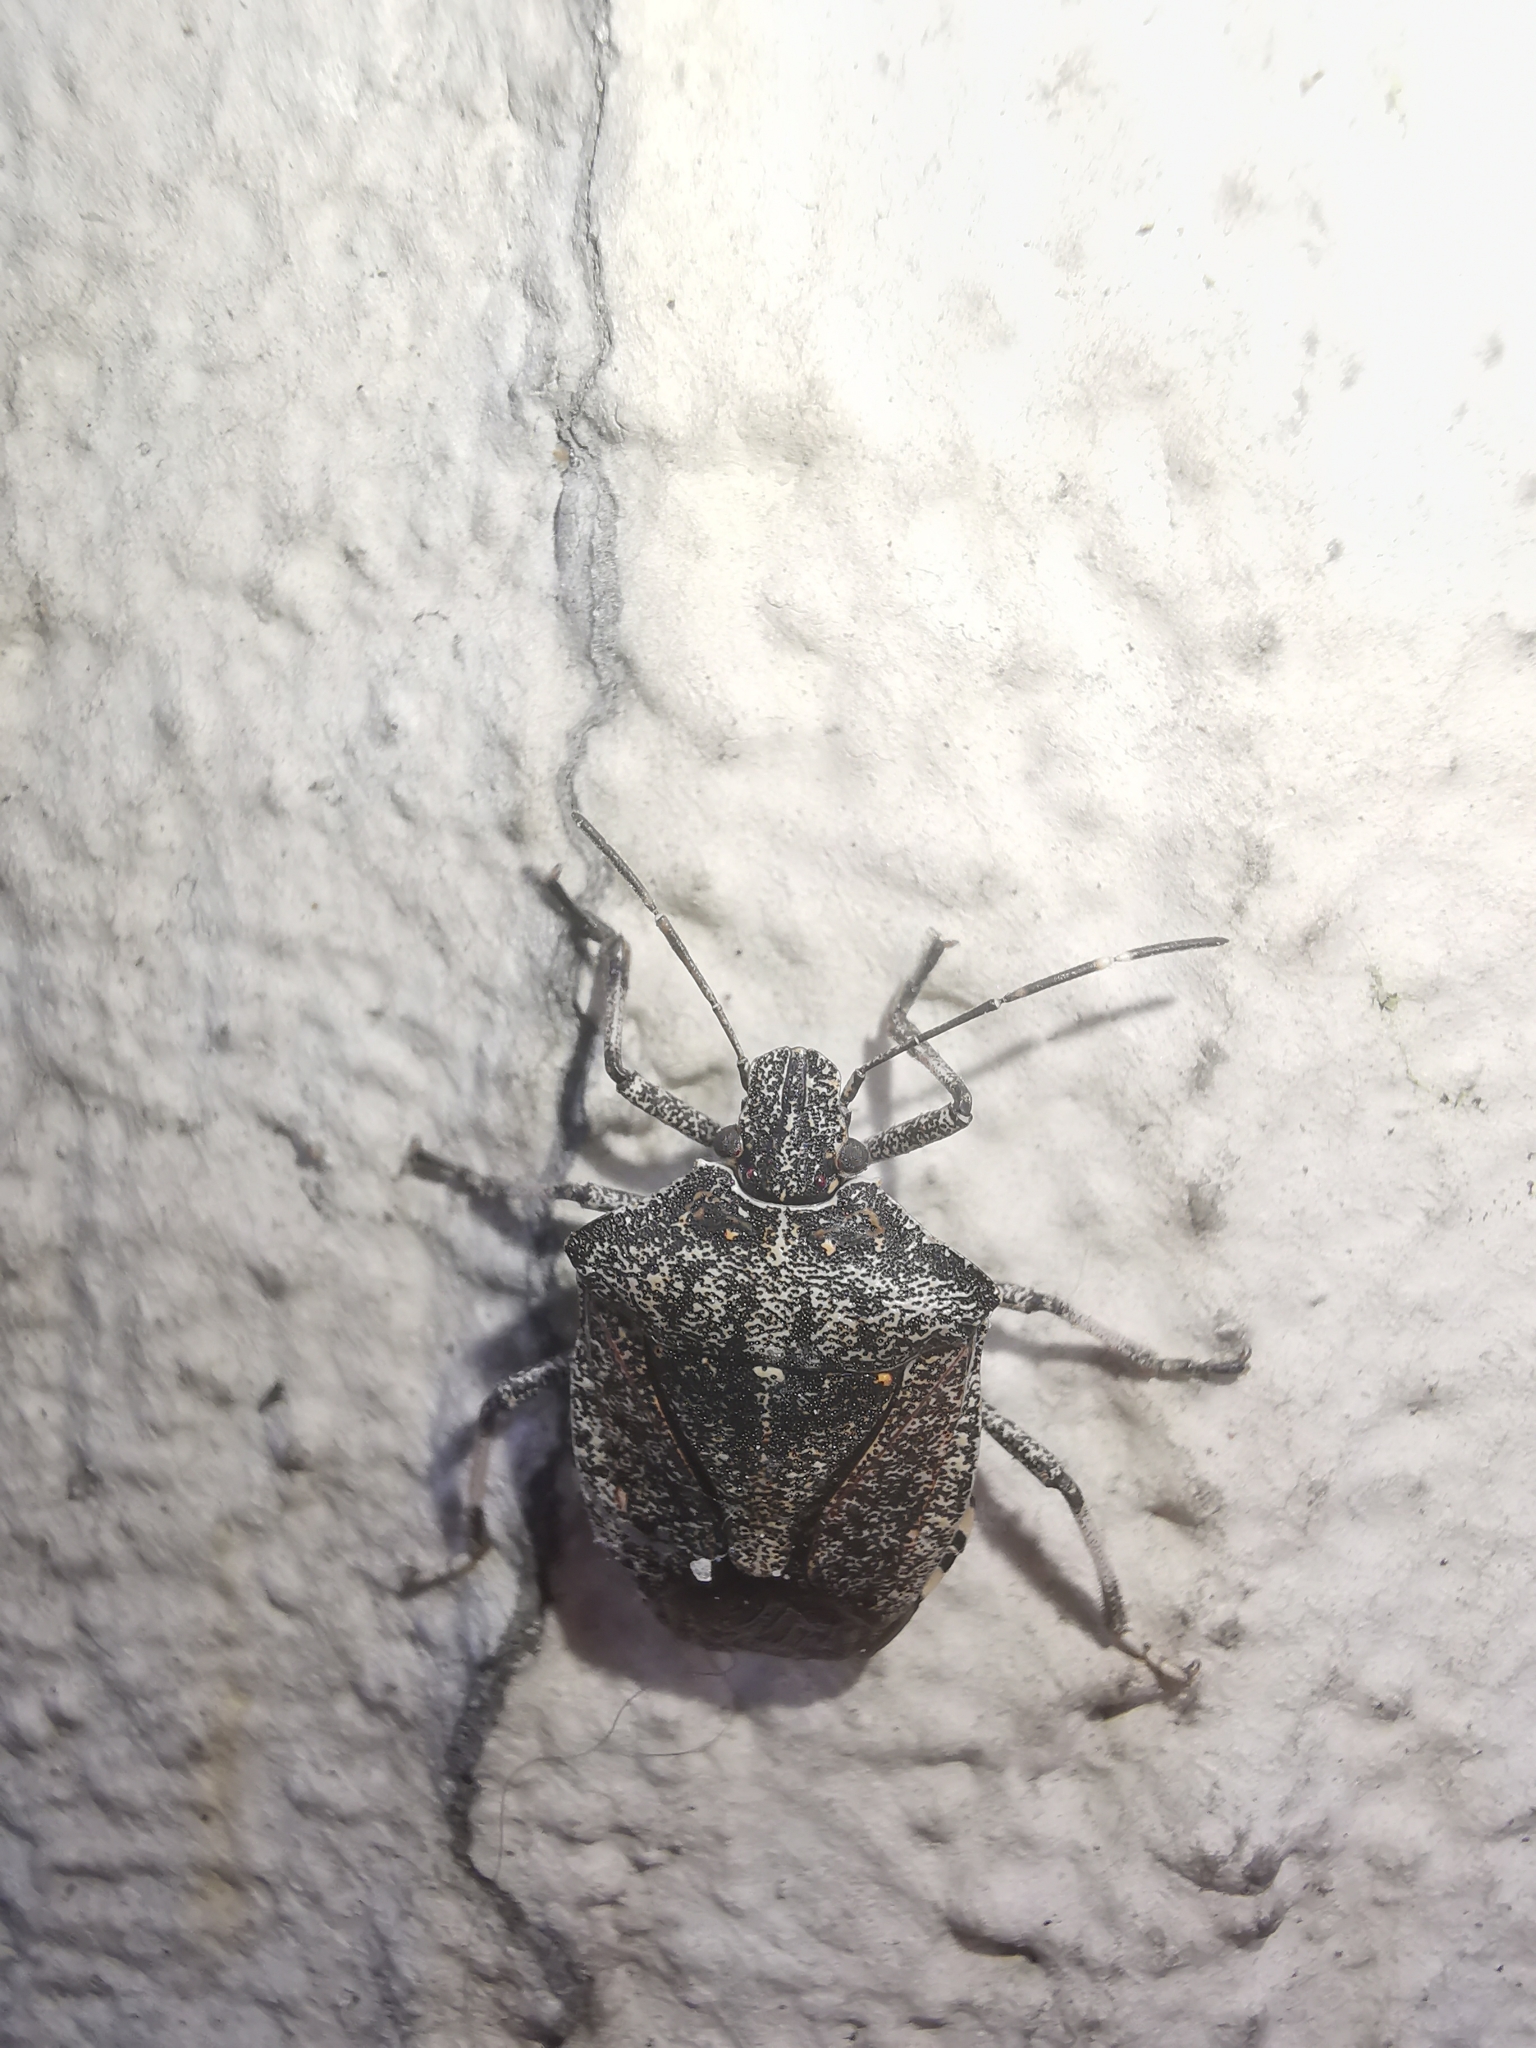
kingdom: Animalia
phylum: Arthropoda
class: Insecta
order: Hemiptera
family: Pentatomidae
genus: Halyomorpha
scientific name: Halyomorpha halys
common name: Brown marmorated stink bug
